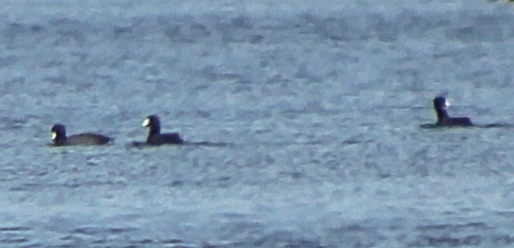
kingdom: Animalia
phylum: Chordata
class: Aves
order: Gruiformes
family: Rallidae
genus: Fulica
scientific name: Fulica americana
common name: American coot
